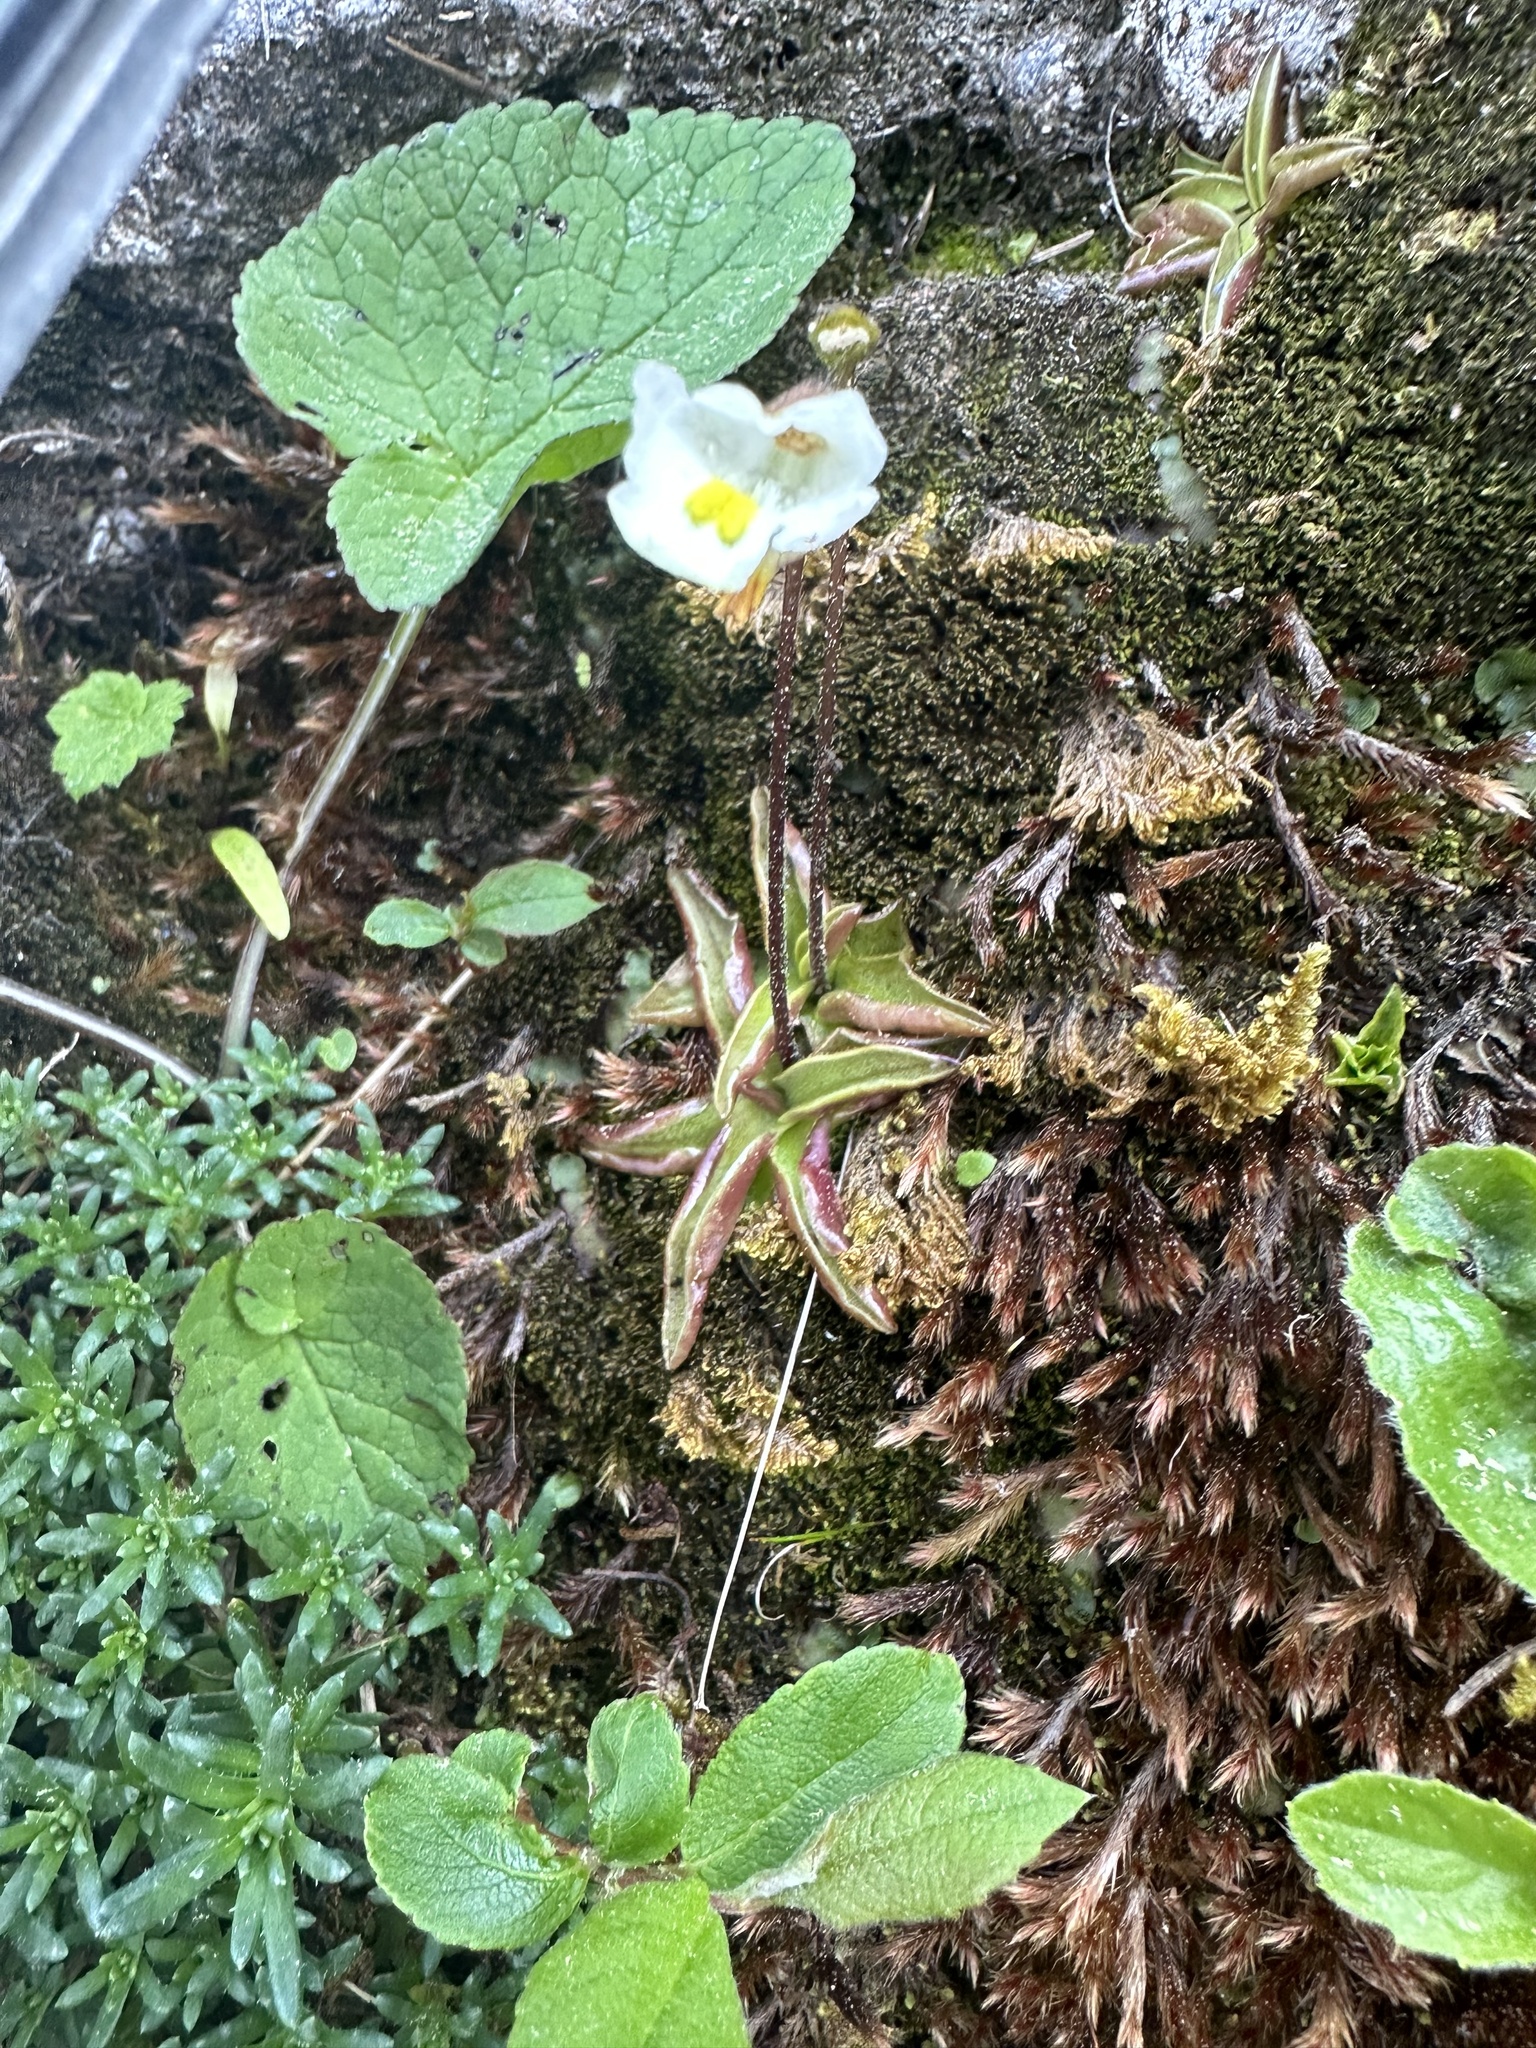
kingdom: Plantae
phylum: Tracheophyta
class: Magnoliopsida
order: Lamiales
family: Lentibulariaceae
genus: Pinguicula
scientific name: Pinguicula alpina
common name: Alpine butterwort
